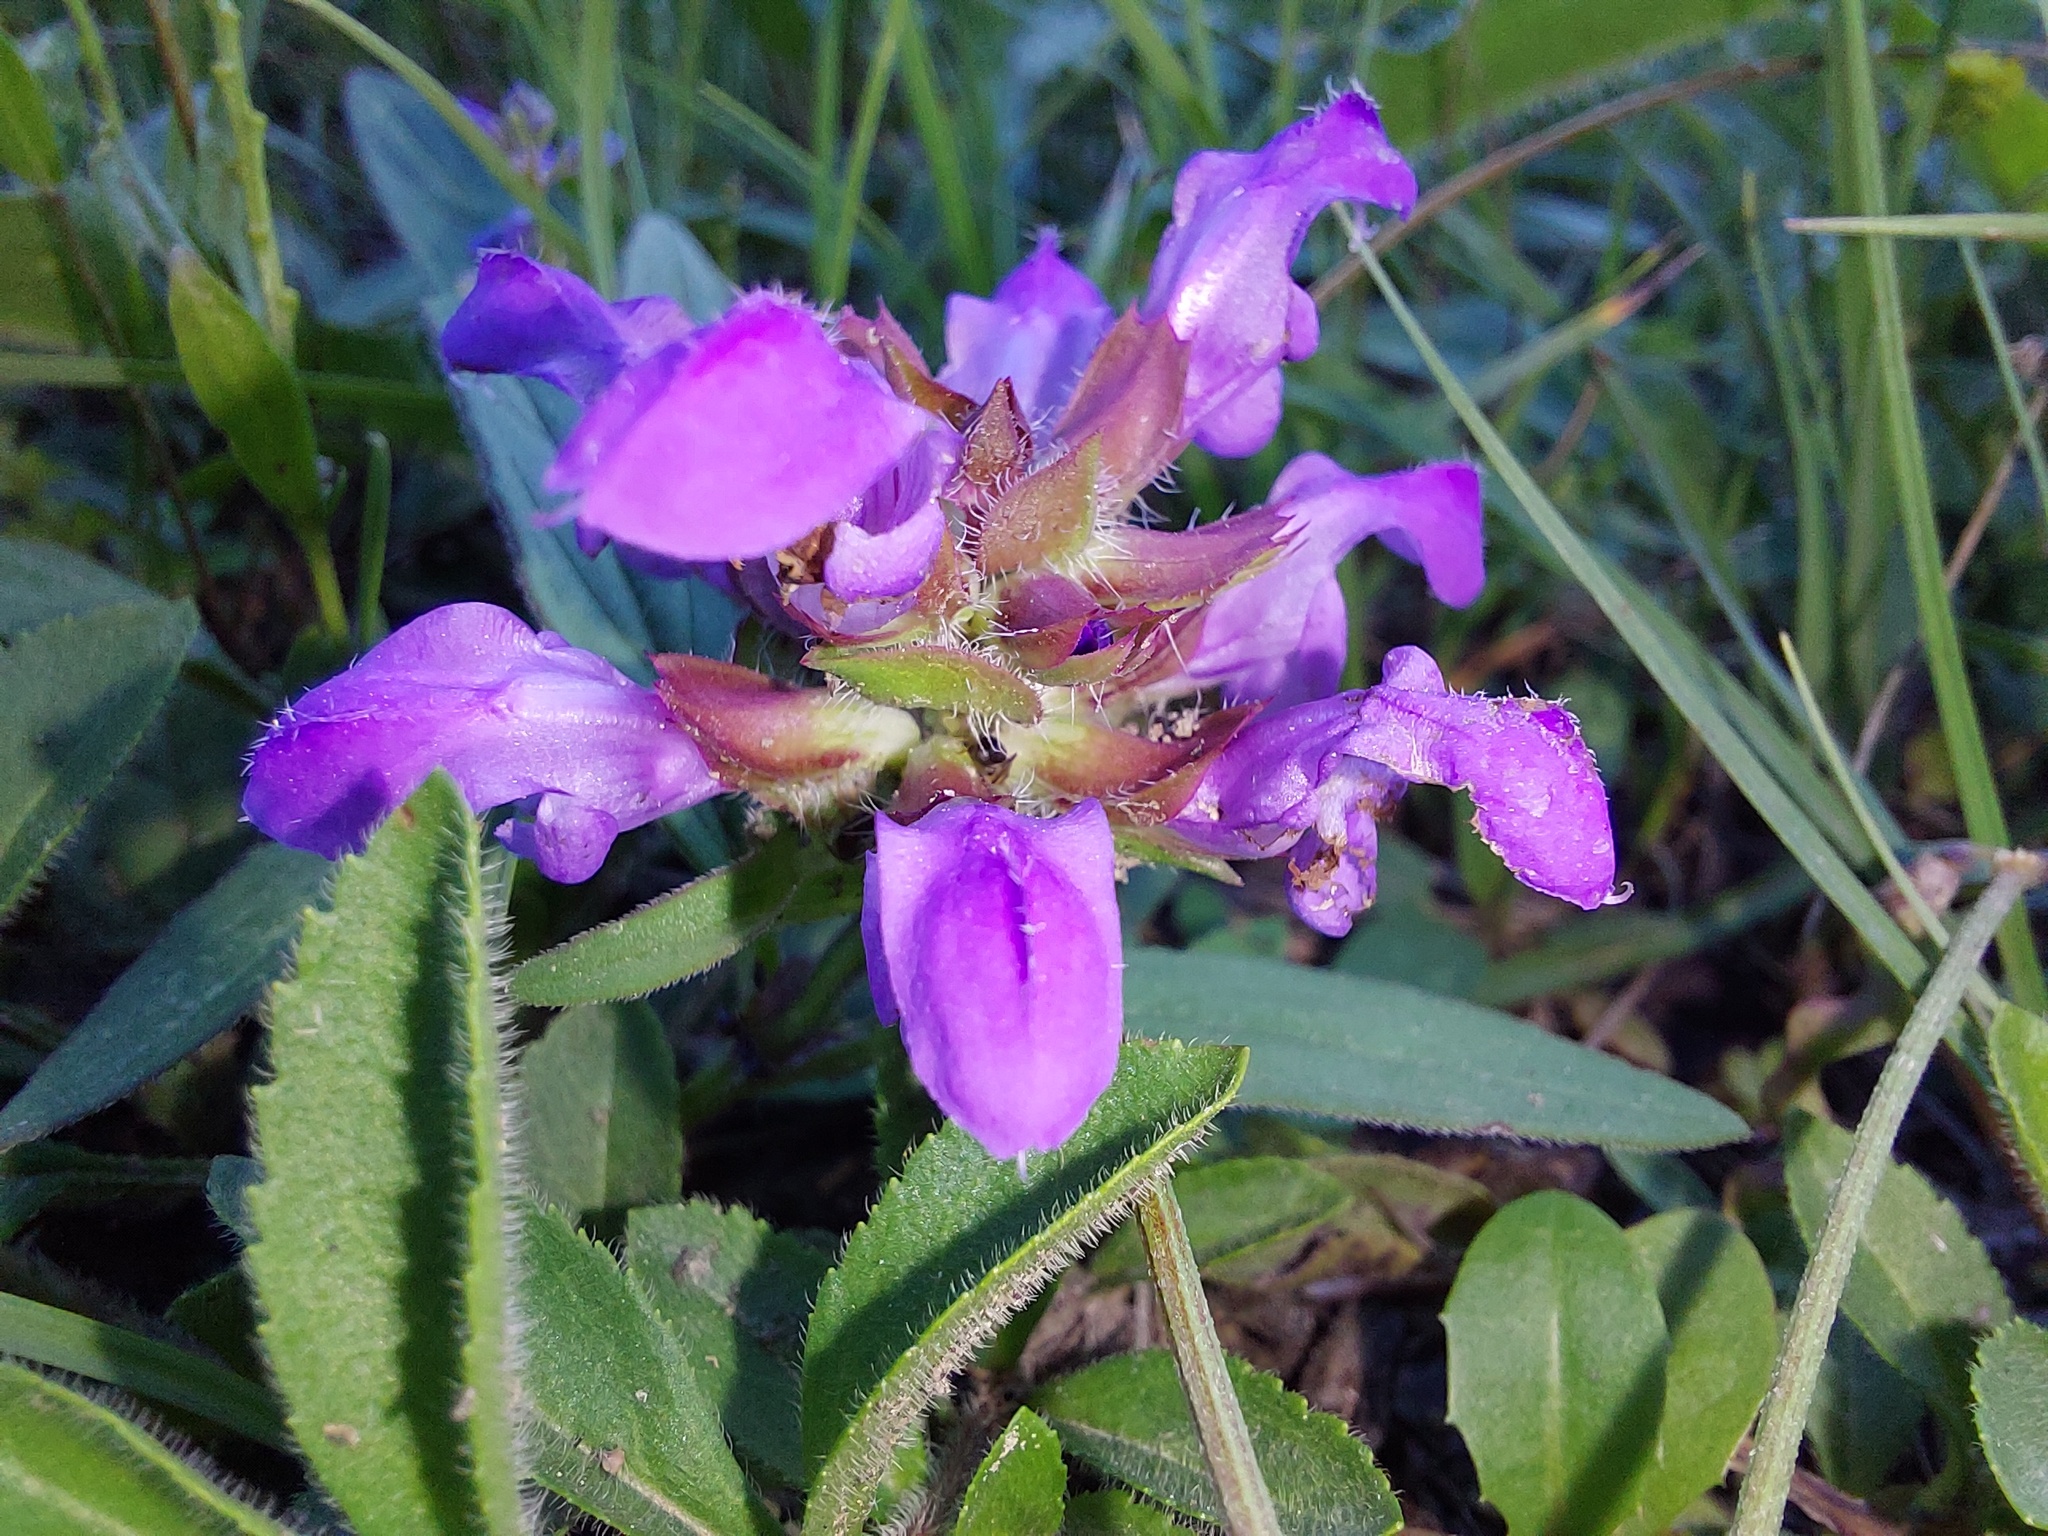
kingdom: Plantae
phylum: Tracheophyta
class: Magnoliopsida
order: Lamiales
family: Lamiaceae
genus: Prunella
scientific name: Prunella grandiflora
